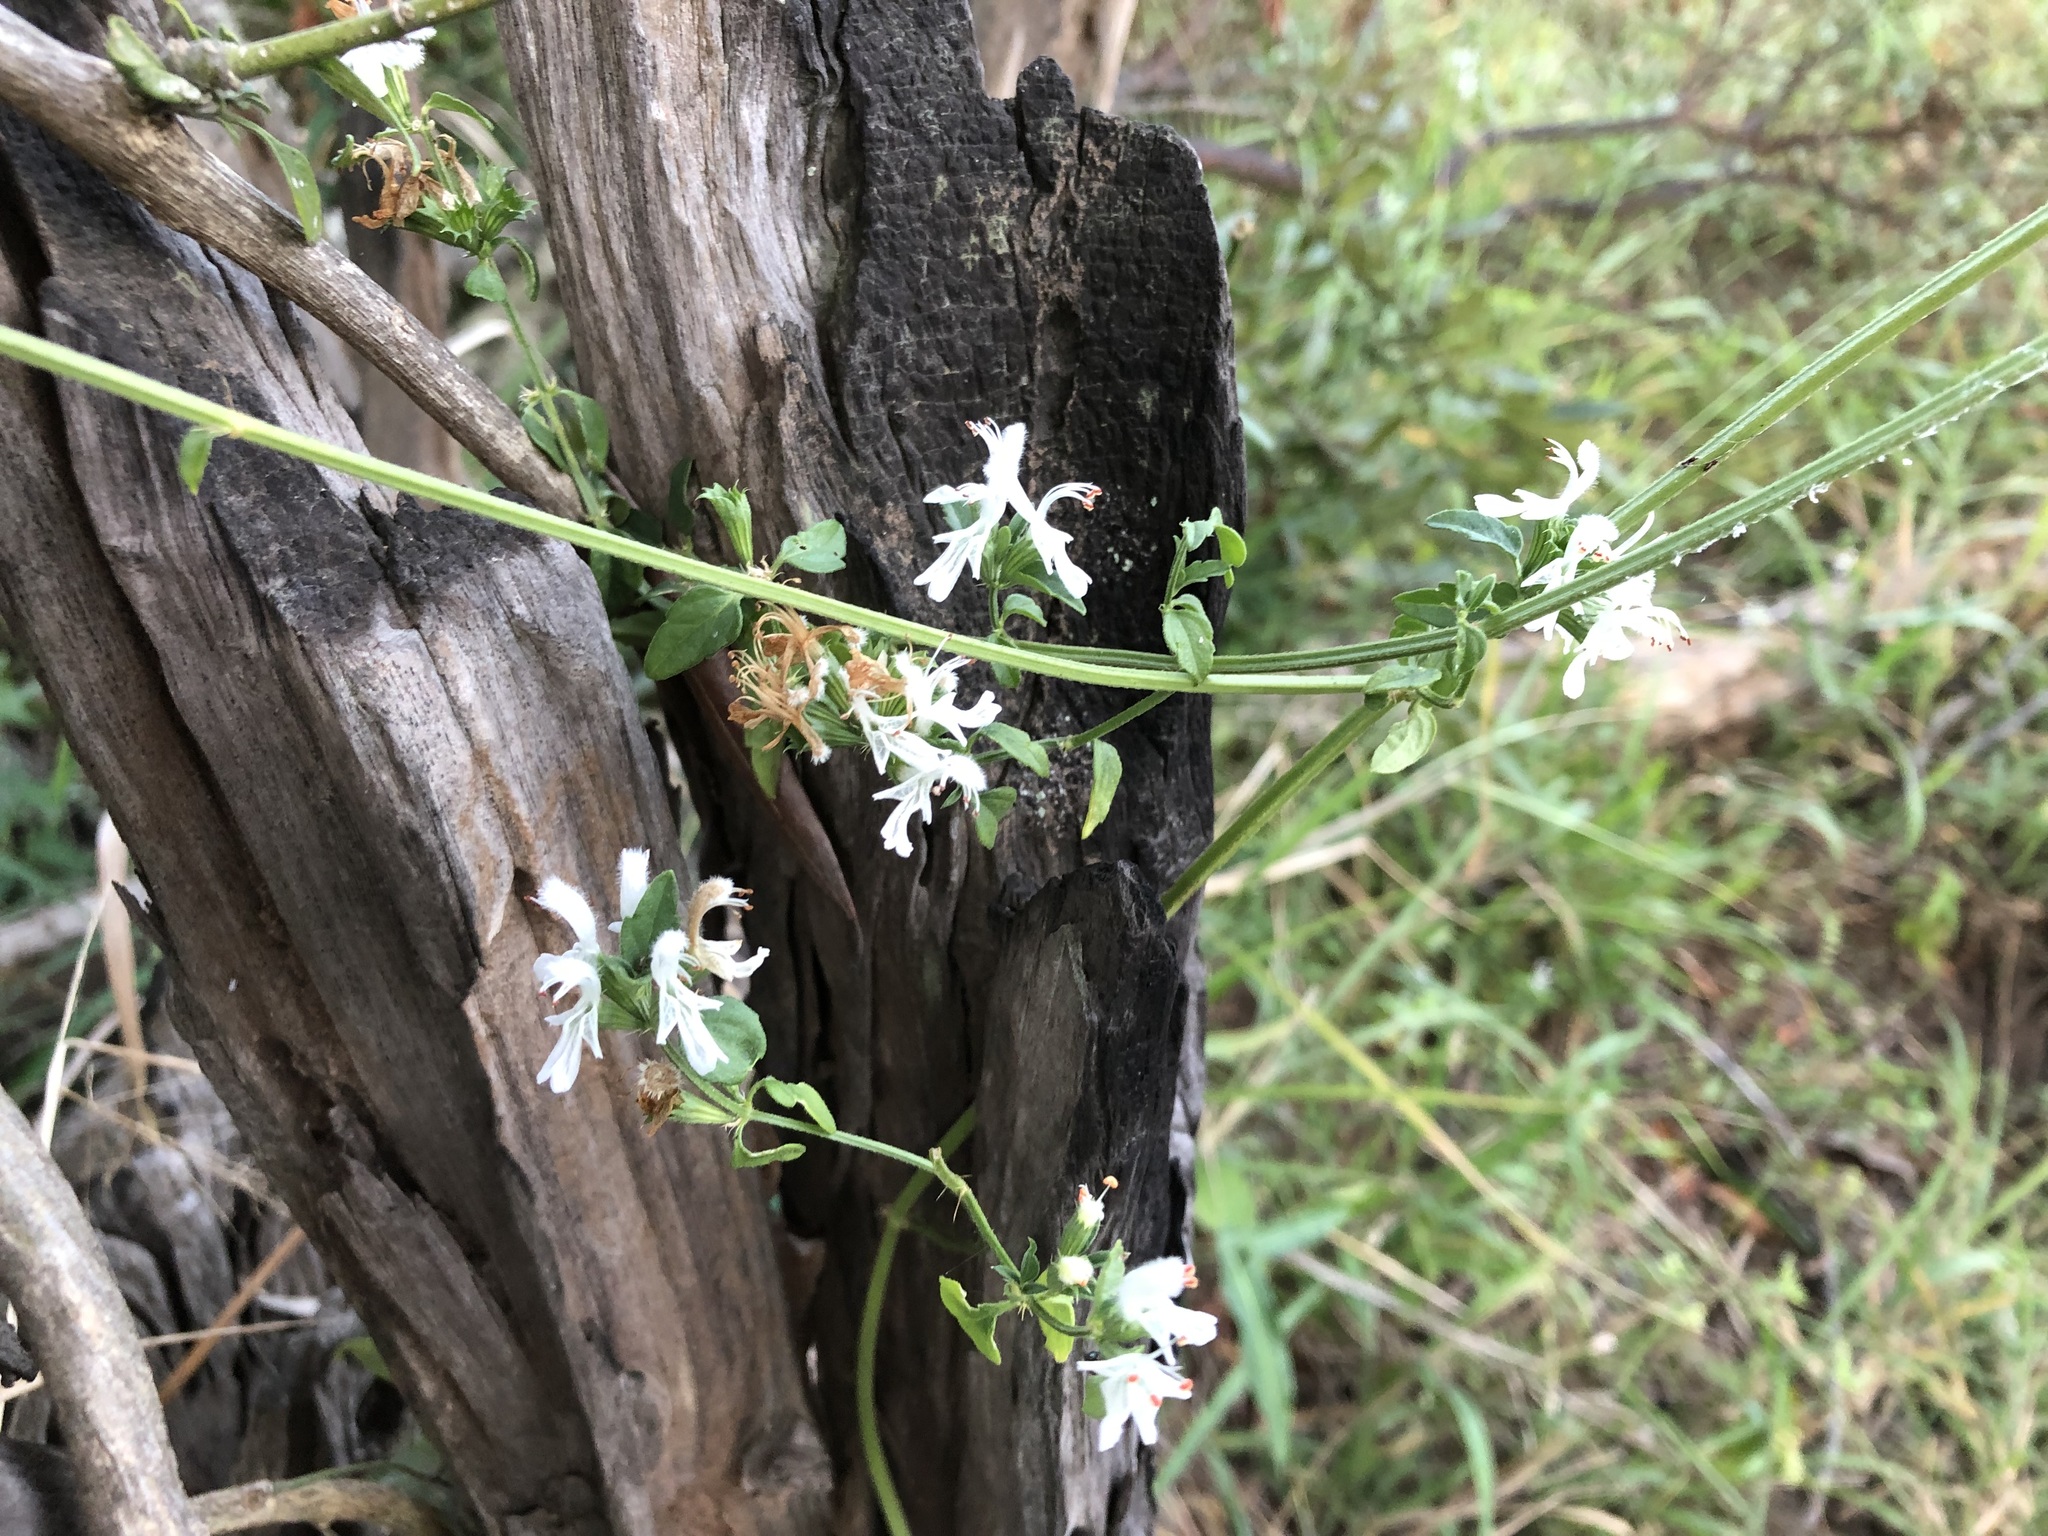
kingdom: Plantae
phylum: Tracheophyta
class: Magnoliopsida
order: Lamiales
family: Lamiaceae
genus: Leucas
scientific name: Leucas glabrata
